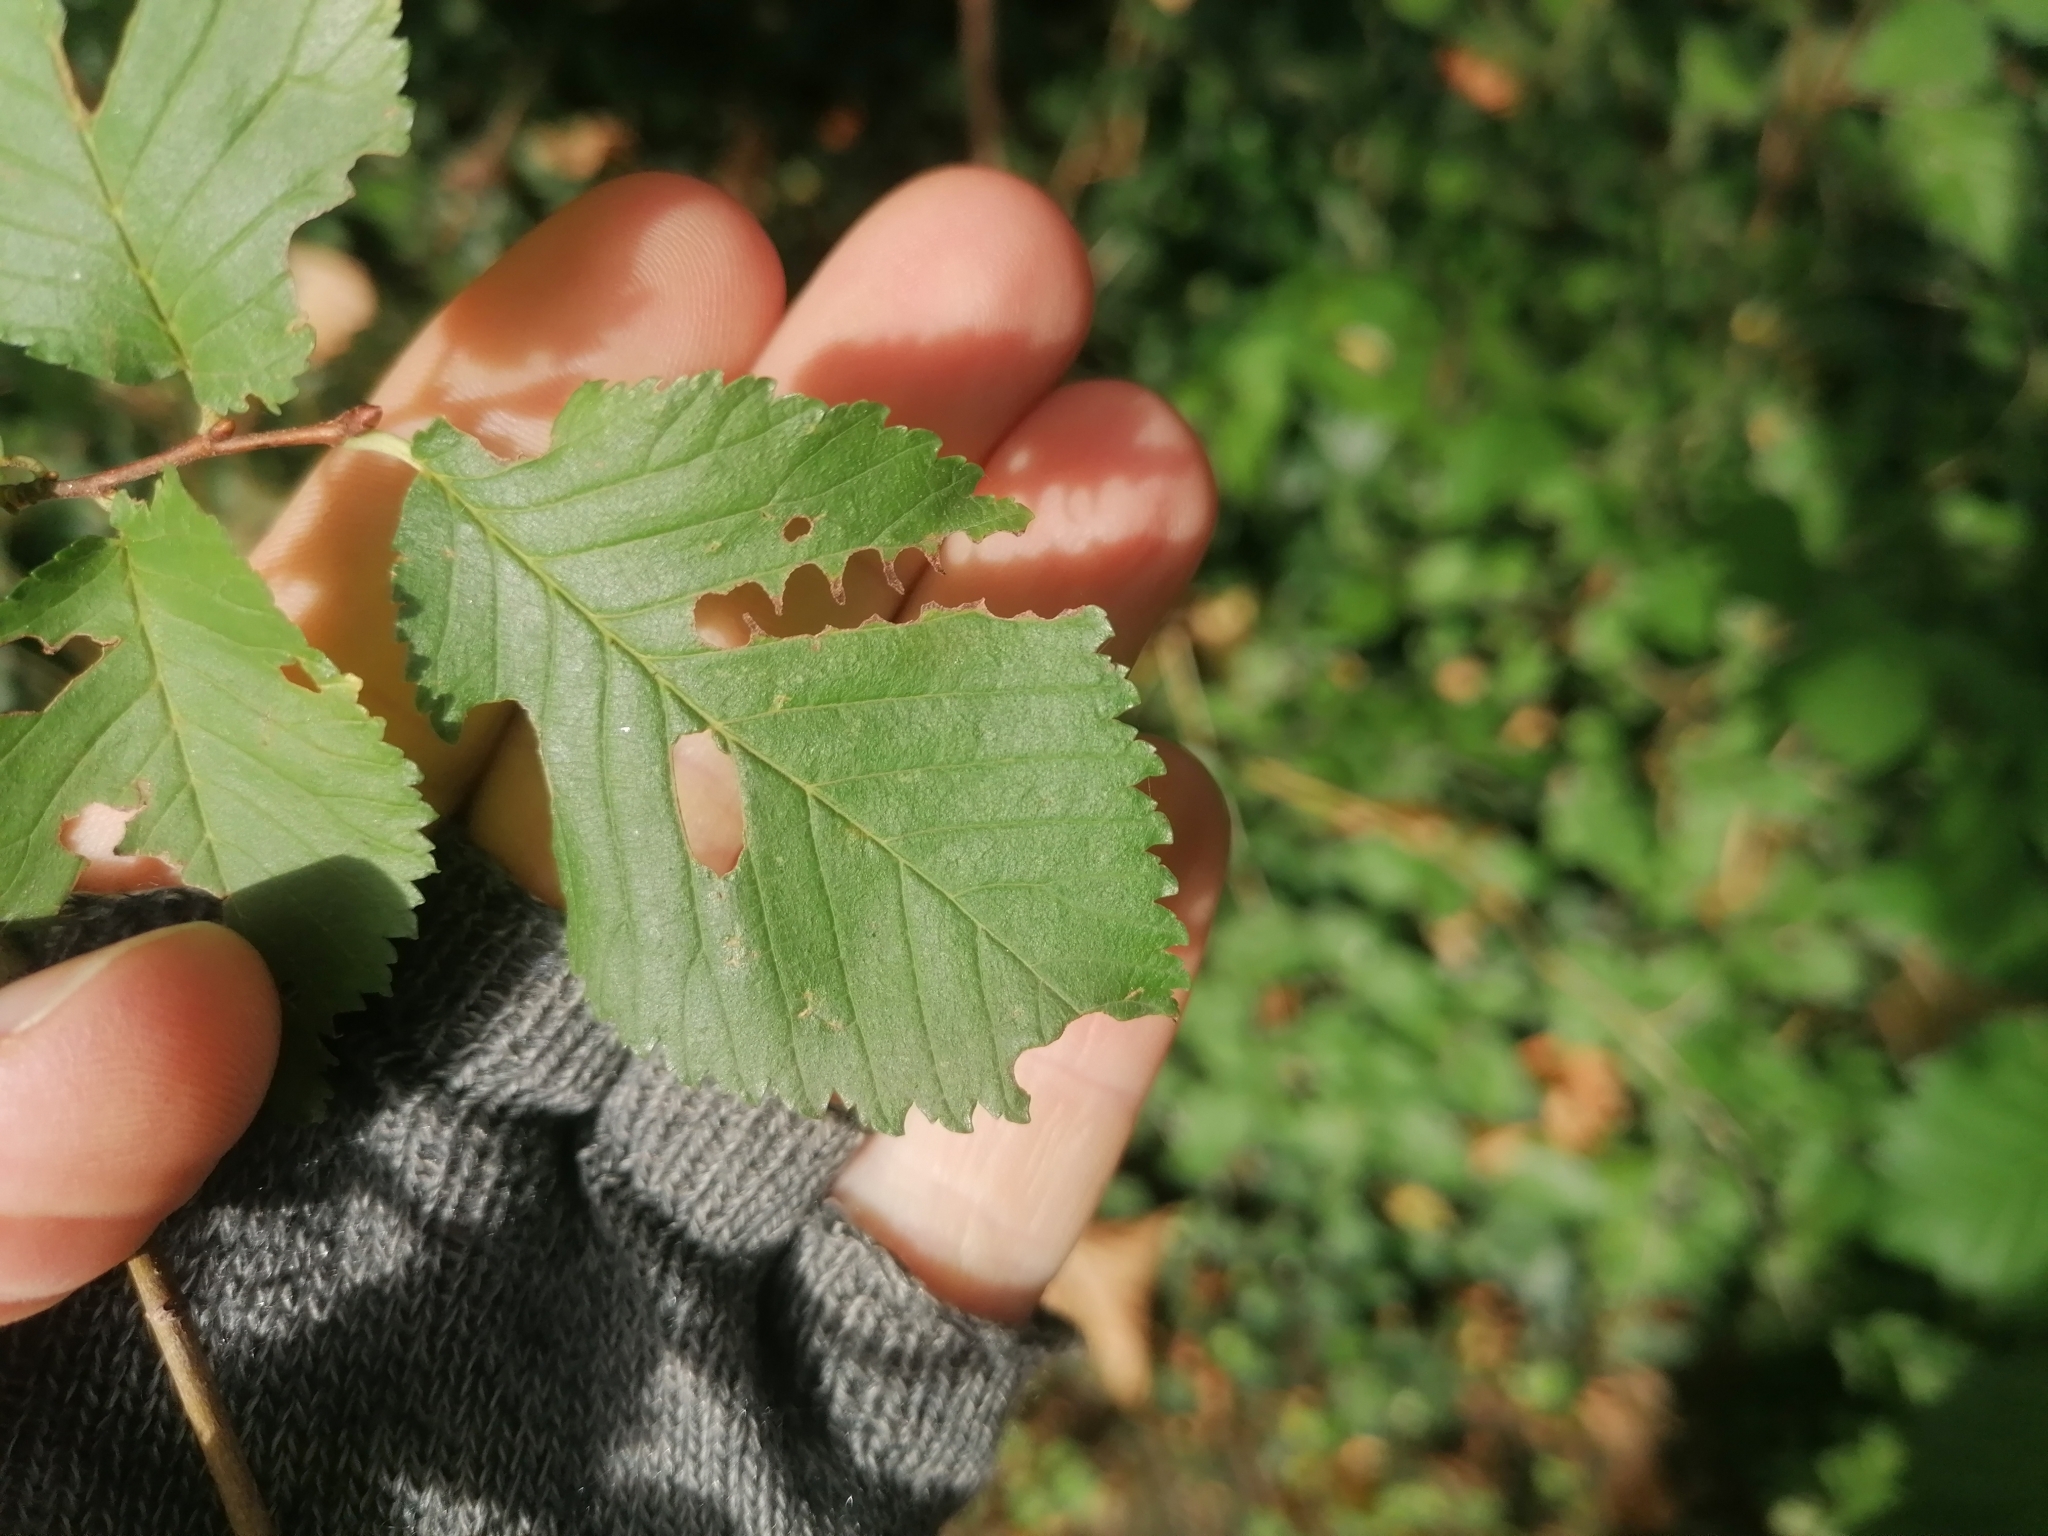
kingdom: Animalia
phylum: Arthropoda
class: Insecta
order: Hymenoptera
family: Argidae
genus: Aproceros
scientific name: Aproceros leucopoda
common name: Zig-zag elm sawfly
